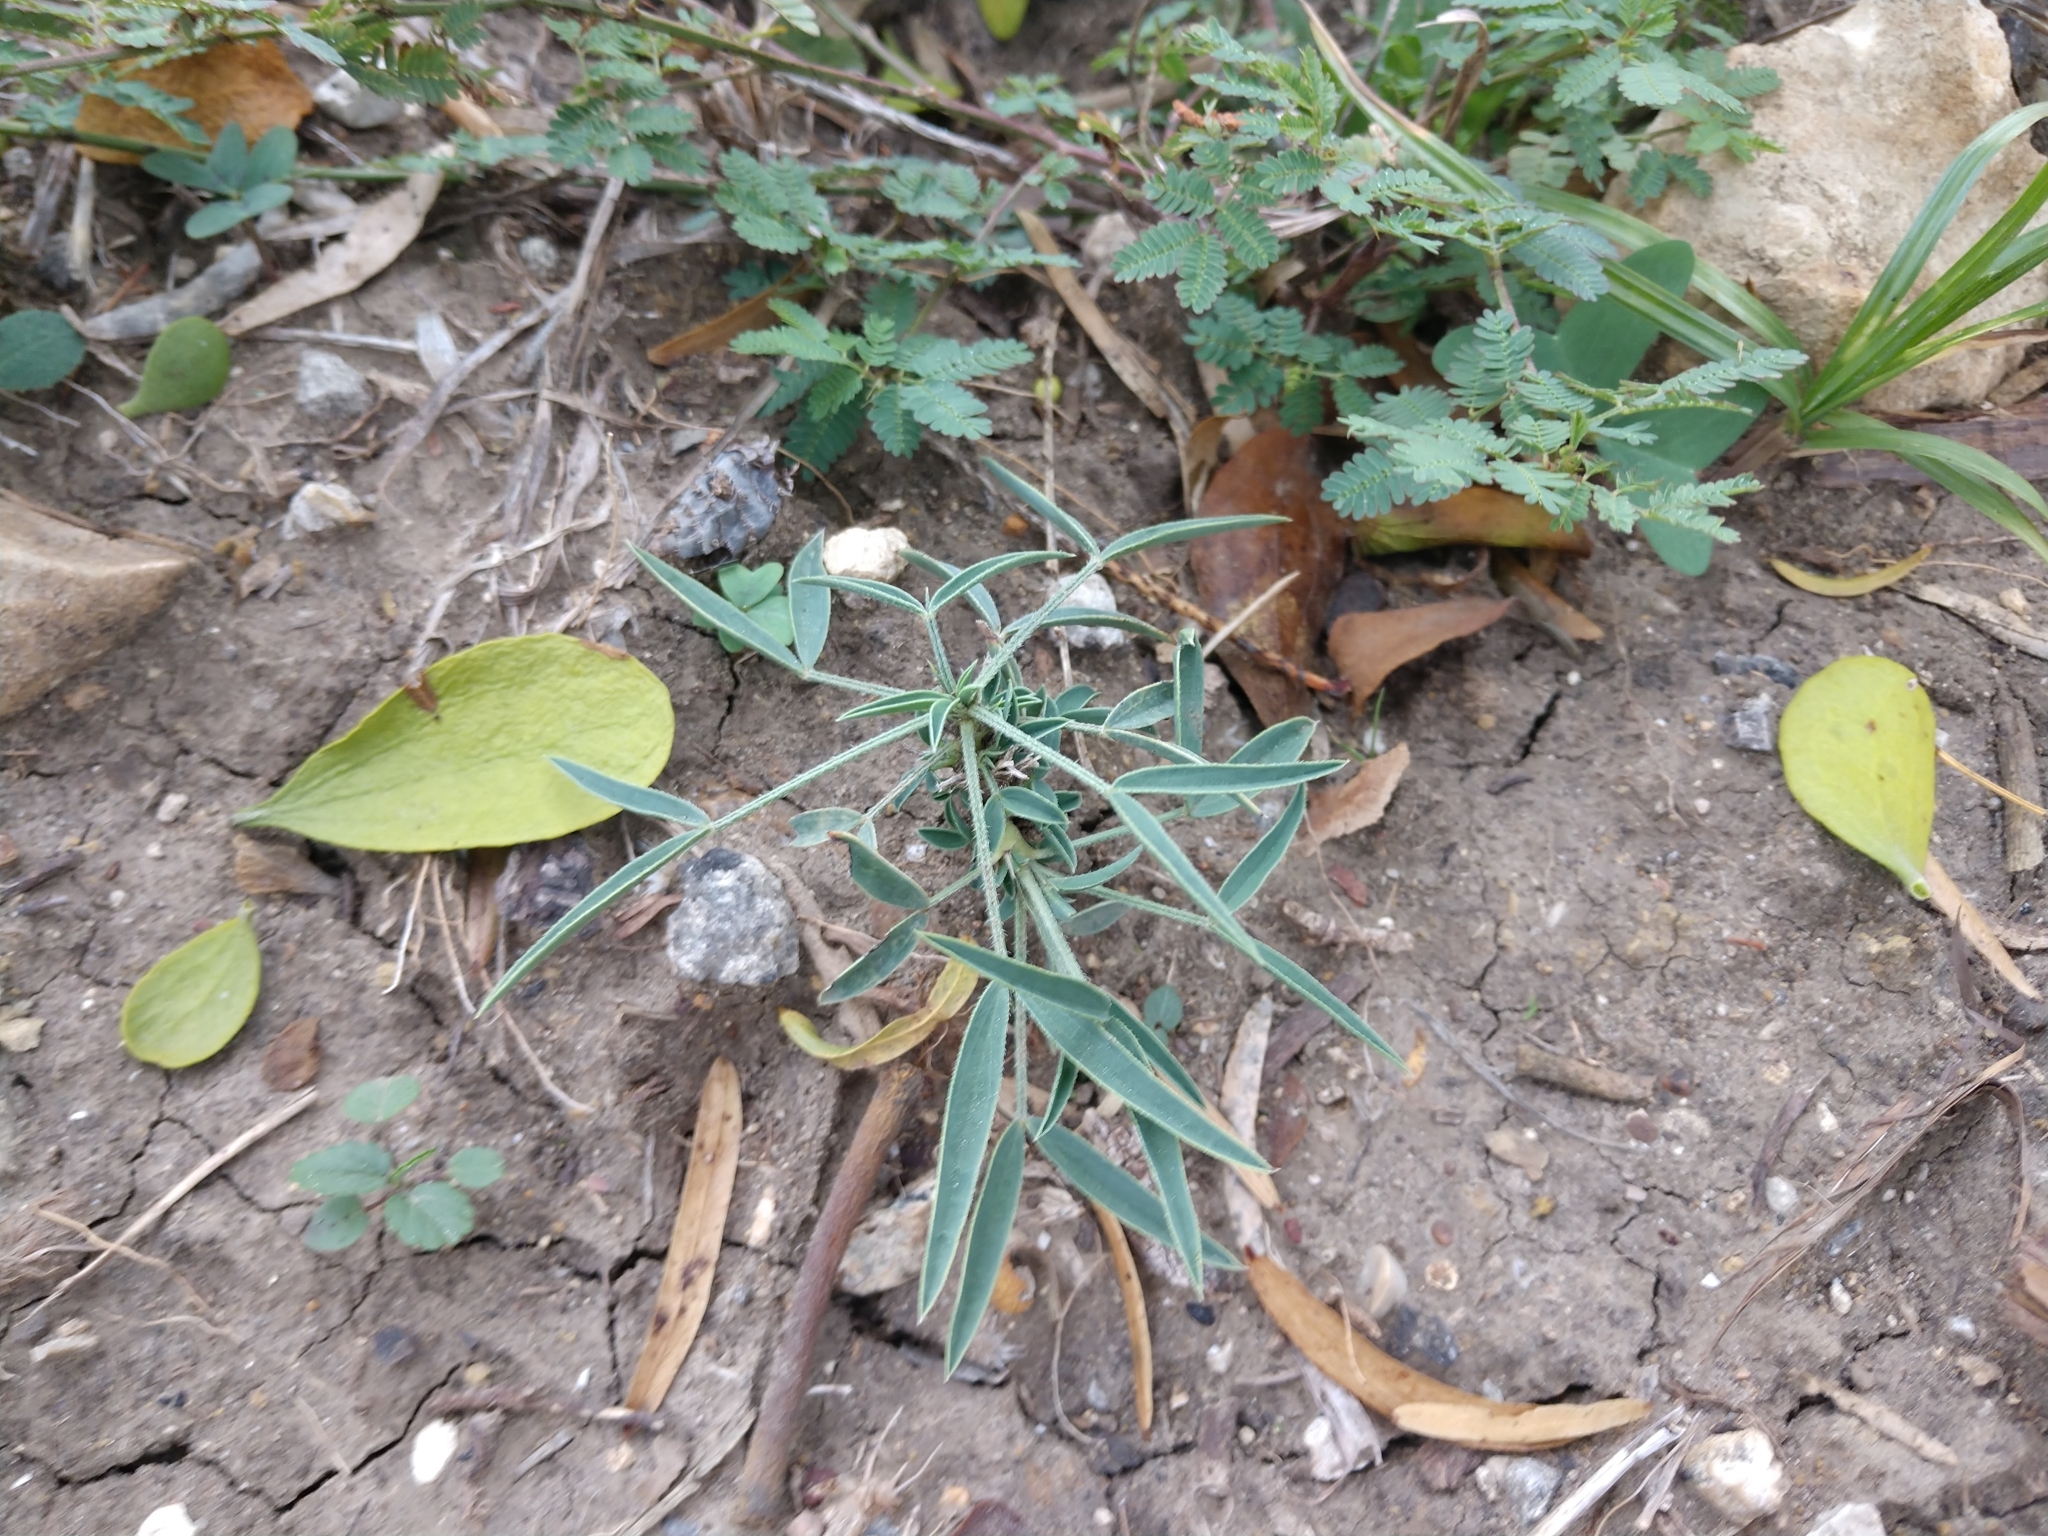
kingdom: Plantae
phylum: Tracheophyta
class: Magnoliopsida
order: Fabales
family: Fabaceae
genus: Senna
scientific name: Senna pumilio
